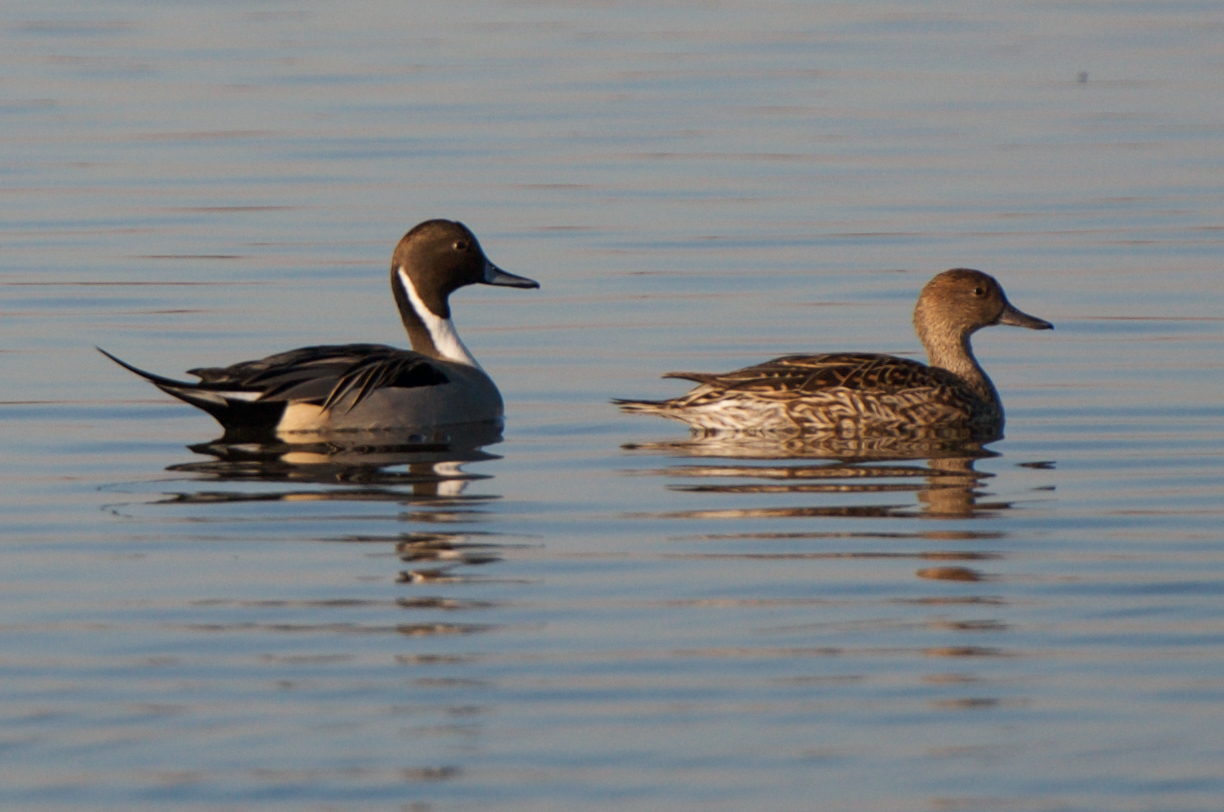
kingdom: Animalia
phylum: Chordata
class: Aves
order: Anseriformes
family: Anatidae
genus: Anas
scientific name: Anas acuta
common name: Northern pintail
